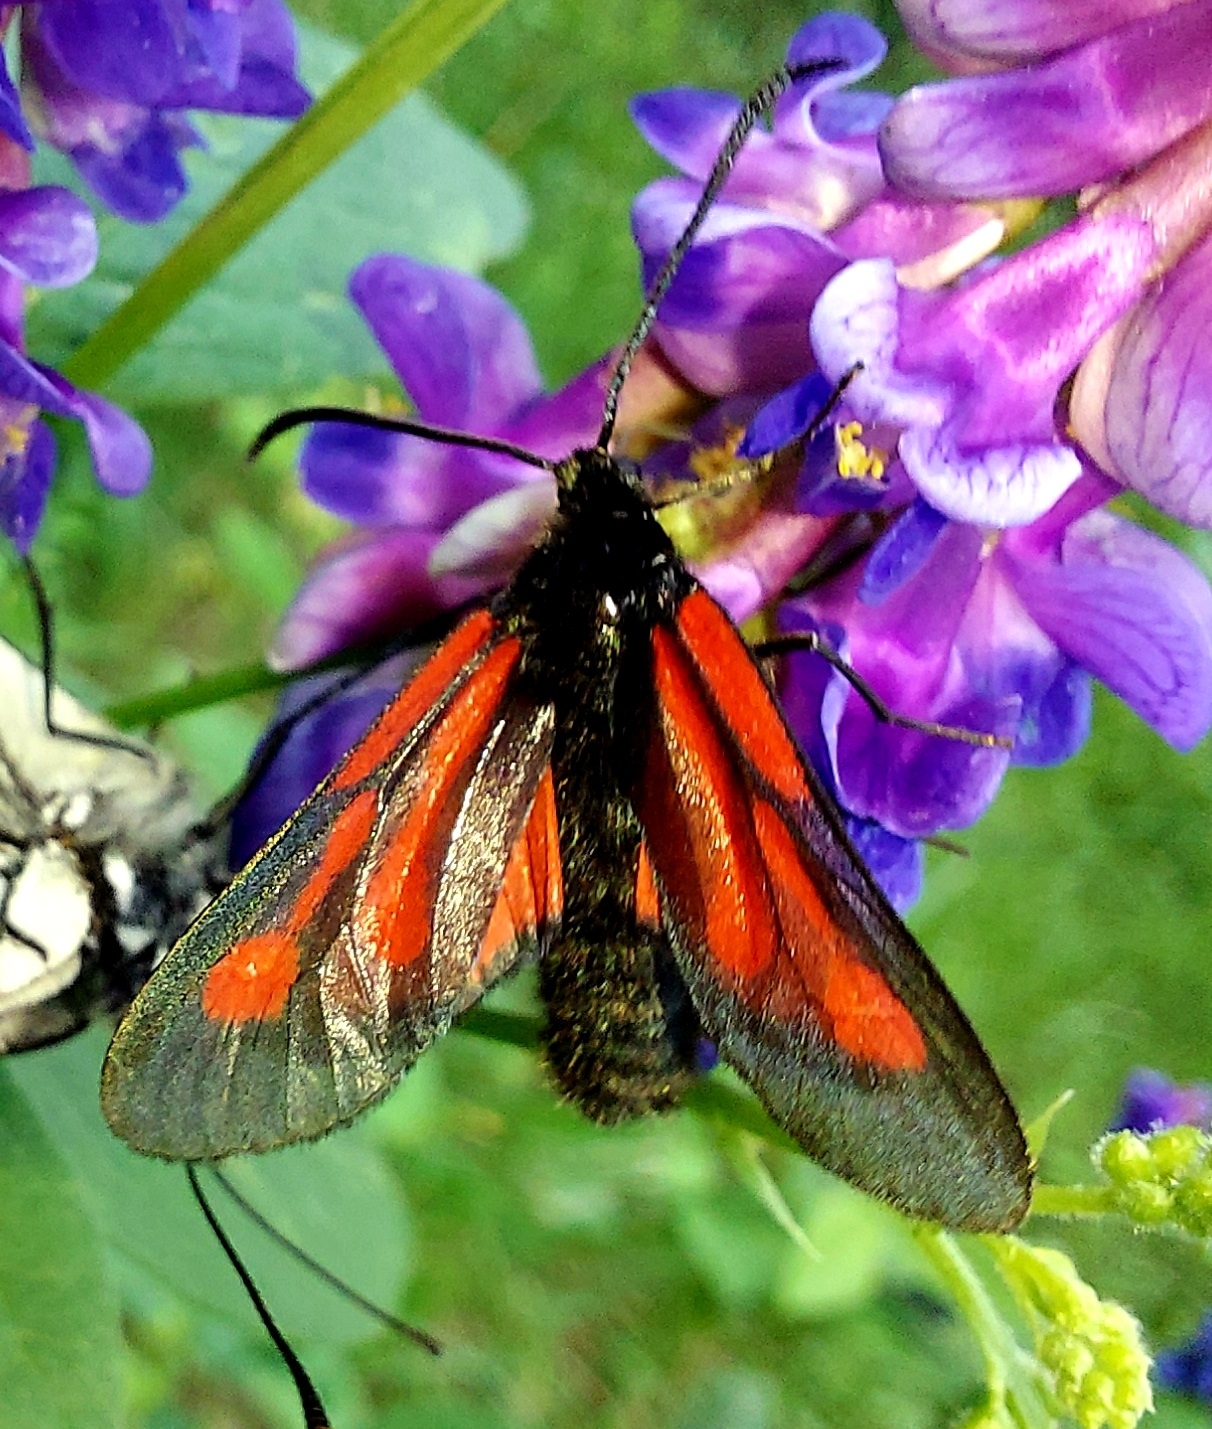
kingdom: Animalia
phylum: Arthropoda
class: Insecta
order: Lepidoptera
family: Zygaenidae
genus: Zygaena
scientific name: Zygaena osterodensis
